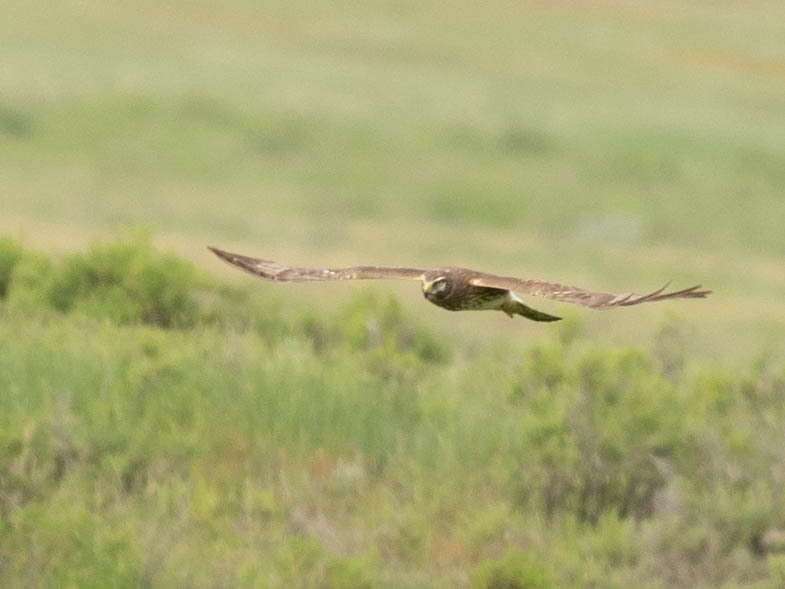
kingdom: Animalia
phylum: Chordata
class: Aves
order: Accipitriformes
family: Accipitridae
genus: Circus
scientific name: Circus cyaneus
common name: Hen harrier
